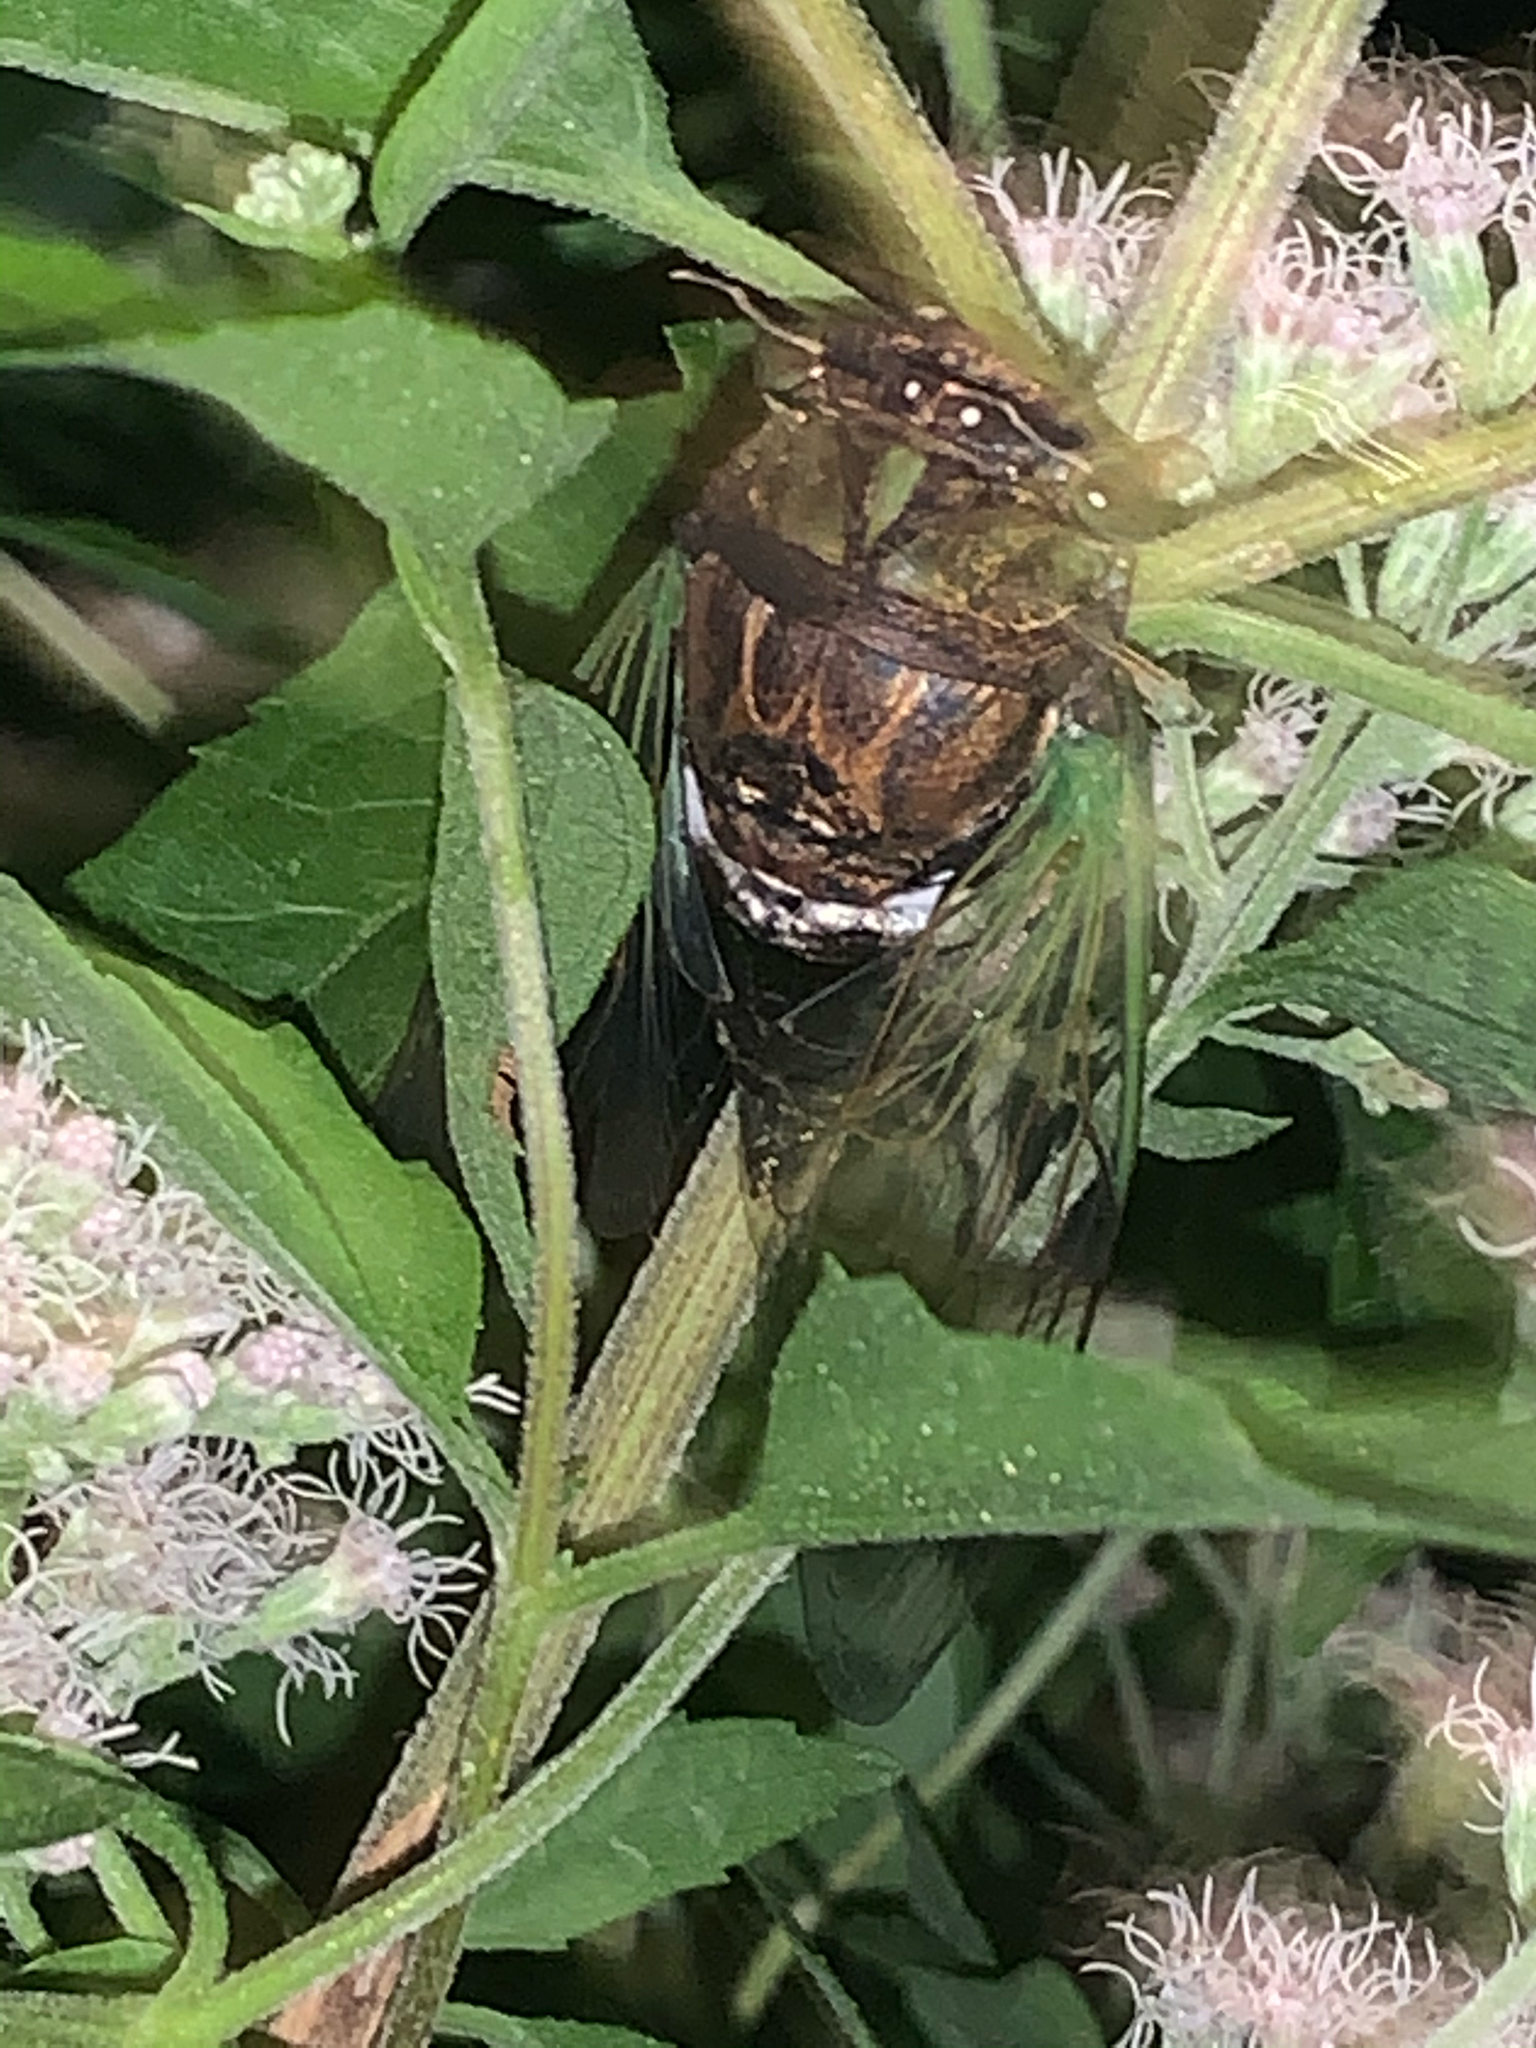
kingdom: Animalia
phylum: Arthropoda
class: Insecta
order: Hemiptera
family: Cicadidae
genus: Neotibicen
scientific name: Neotibicen tibicen
